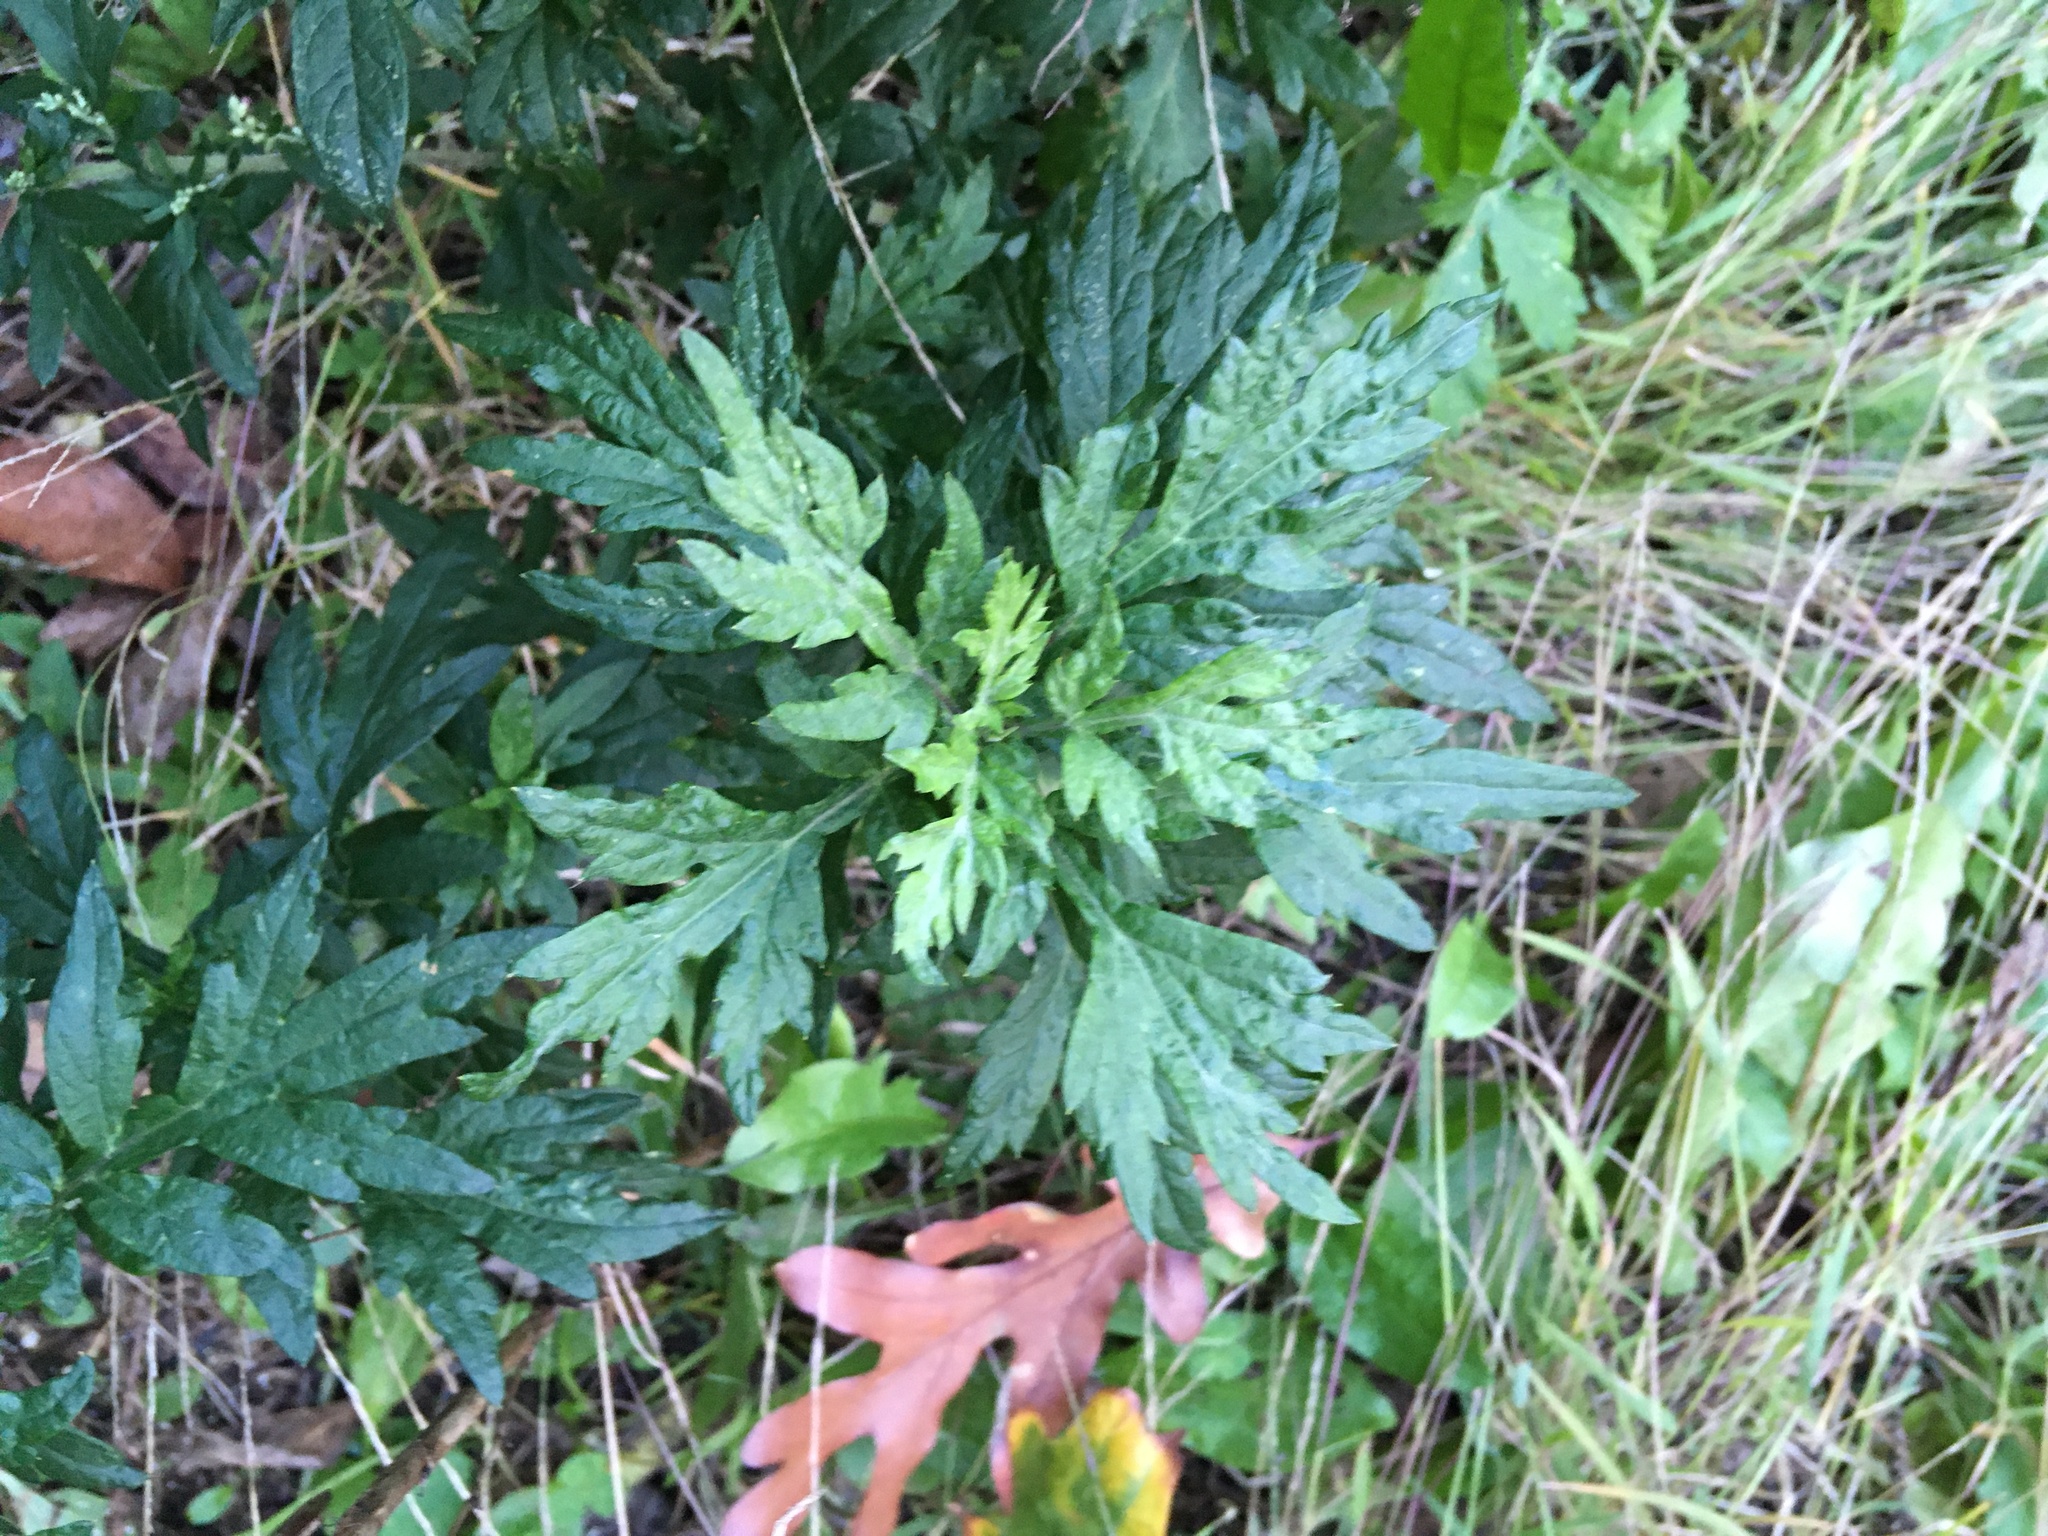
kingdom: Plantae
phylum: Tracheophyta
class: Magnoliopsida
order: Asterales
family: Asteraceae
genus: Artemisia
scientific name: Artemisia vulgaris
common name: Mugwort
